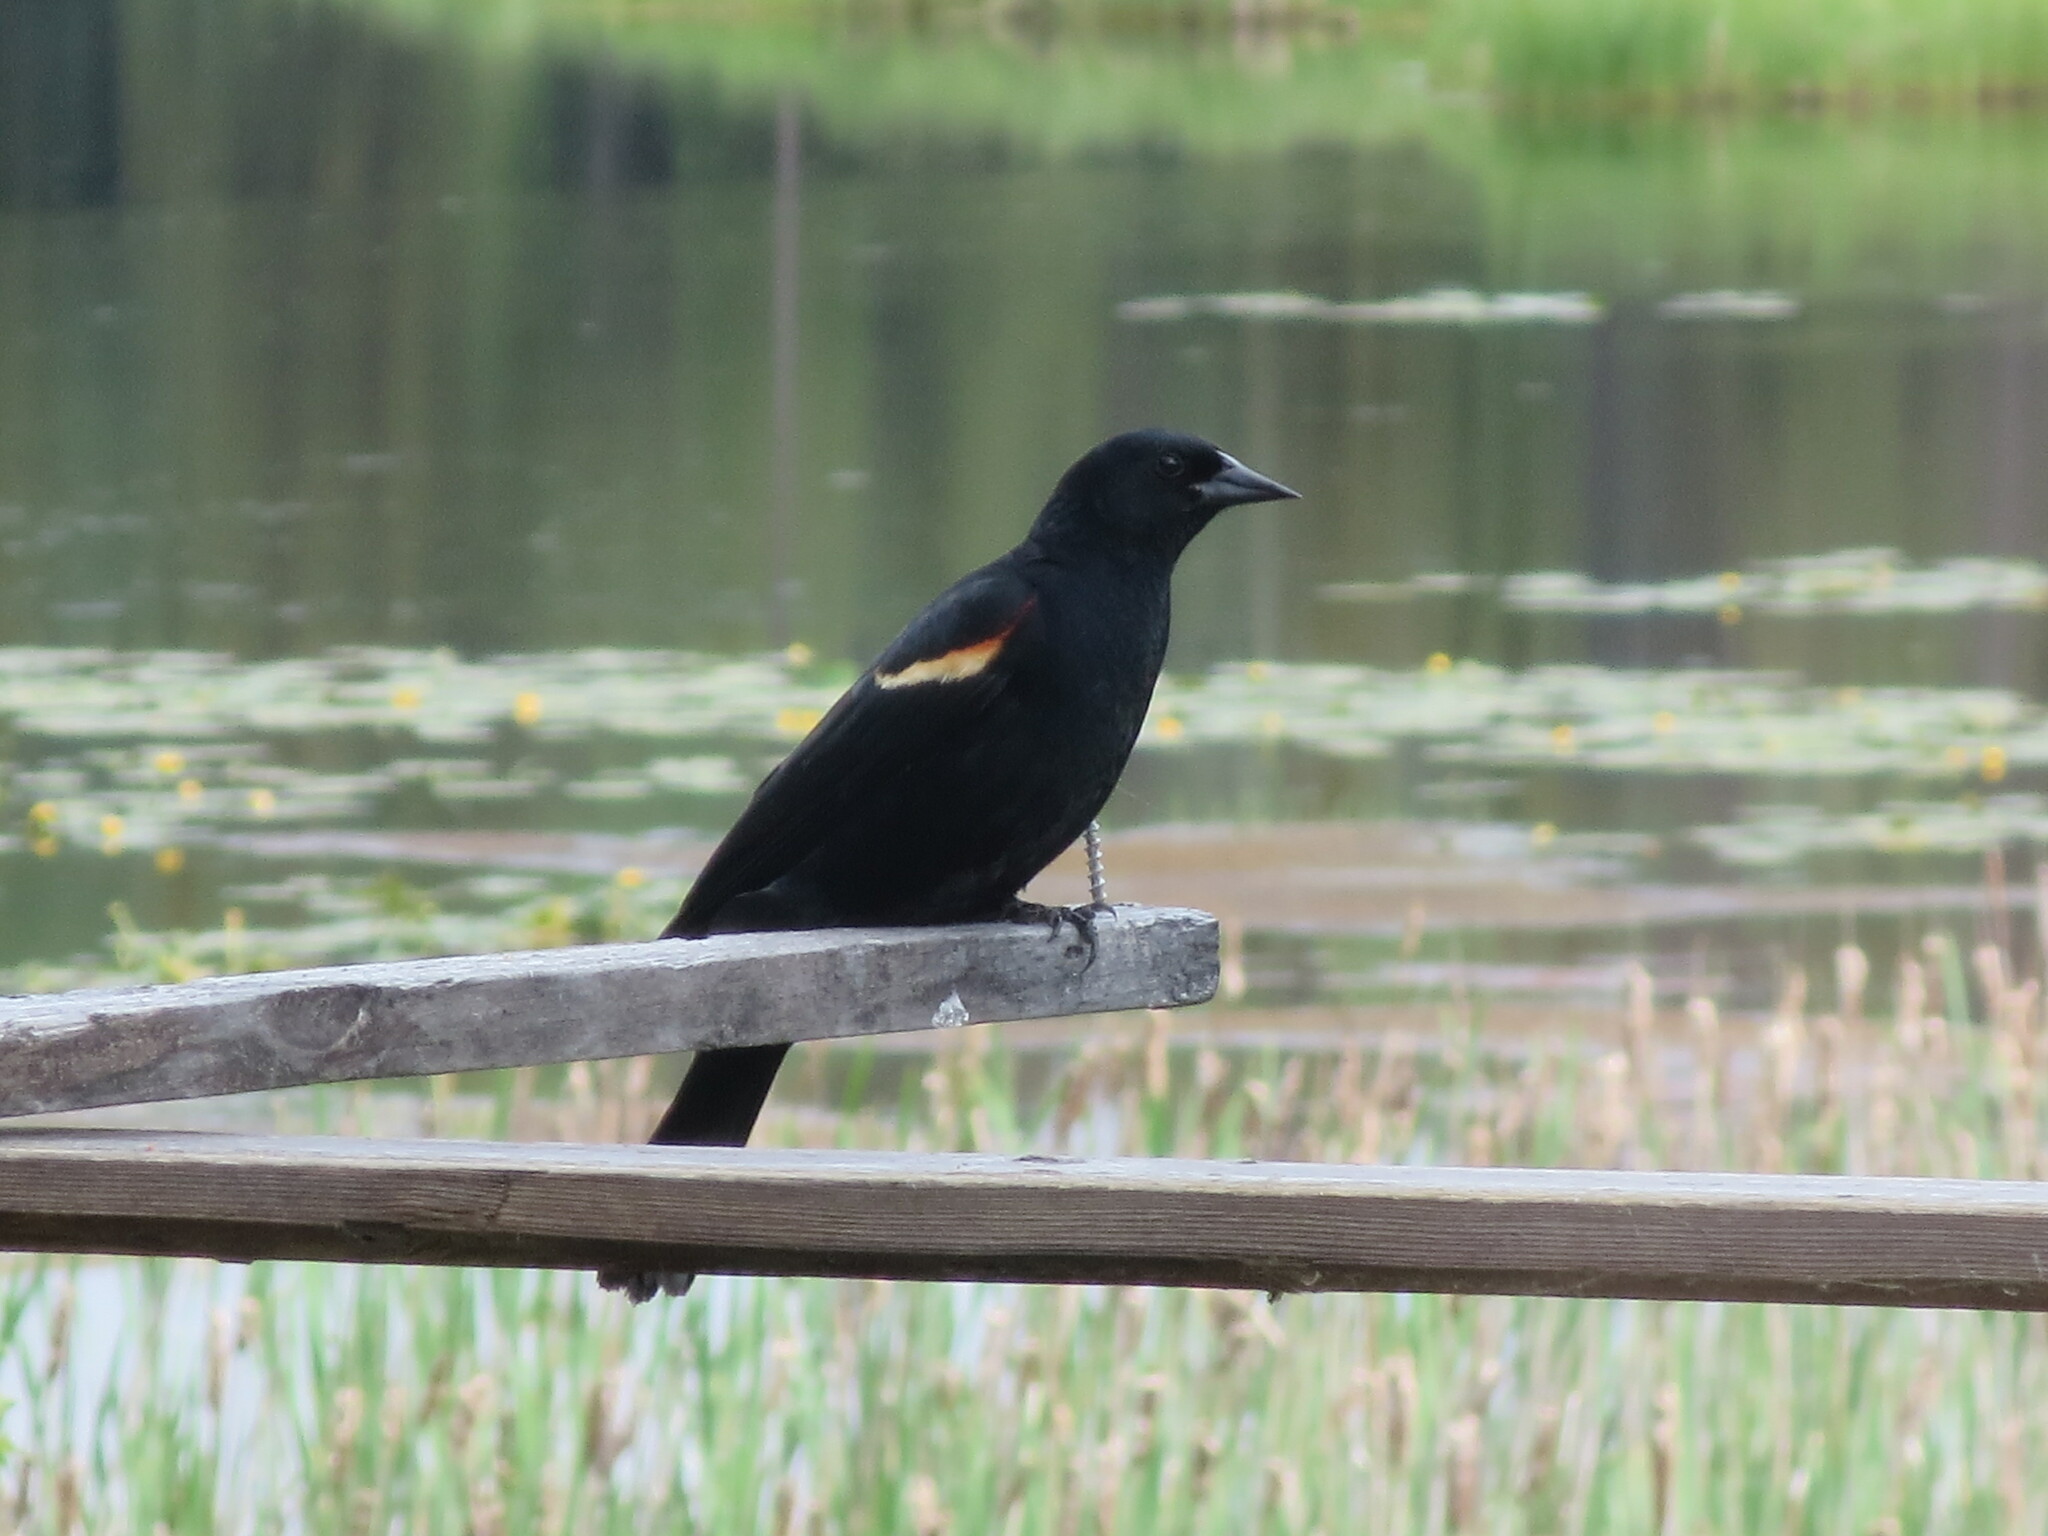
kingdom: Animalia
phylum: Chordata
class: Aves
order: Passeriformes
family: Icteridae
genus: Agelaius
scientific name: Agelaius phoeniceus
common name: Red-winged blackbird
